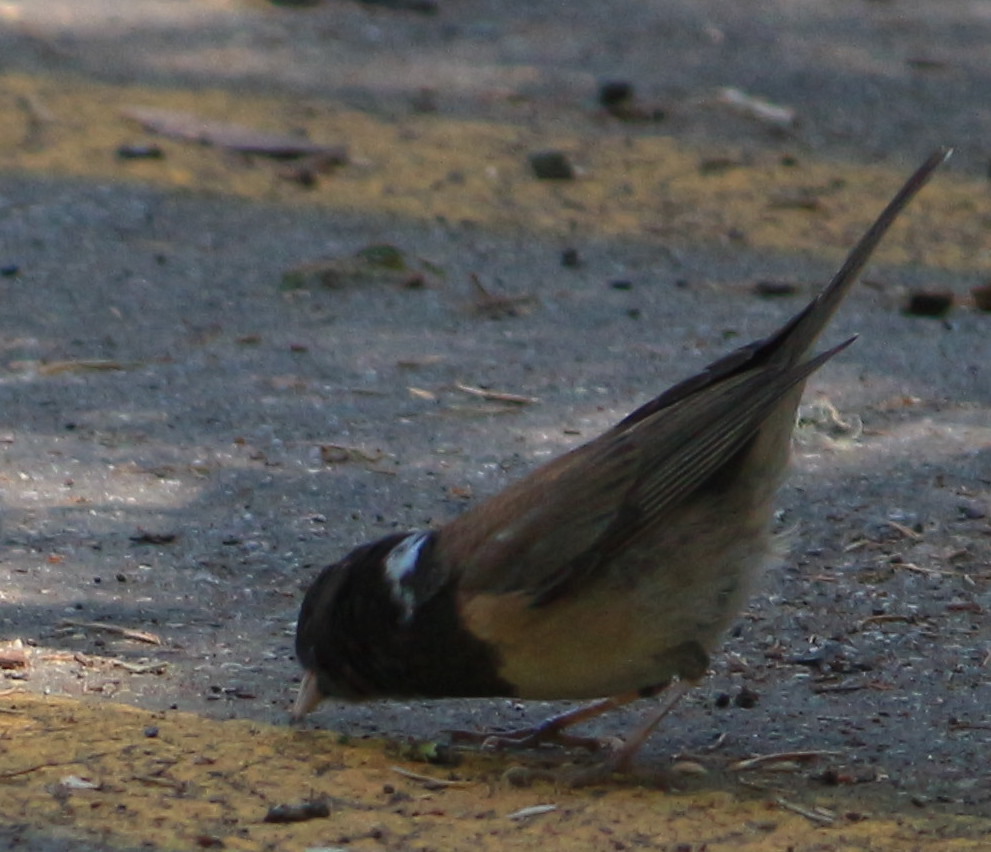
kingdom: Animalia
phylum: Chordata
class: Aves
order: Passeriformes
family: Passerellidae
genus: Junco
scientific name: Junco hyemalis
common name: Dark-eyed junco
